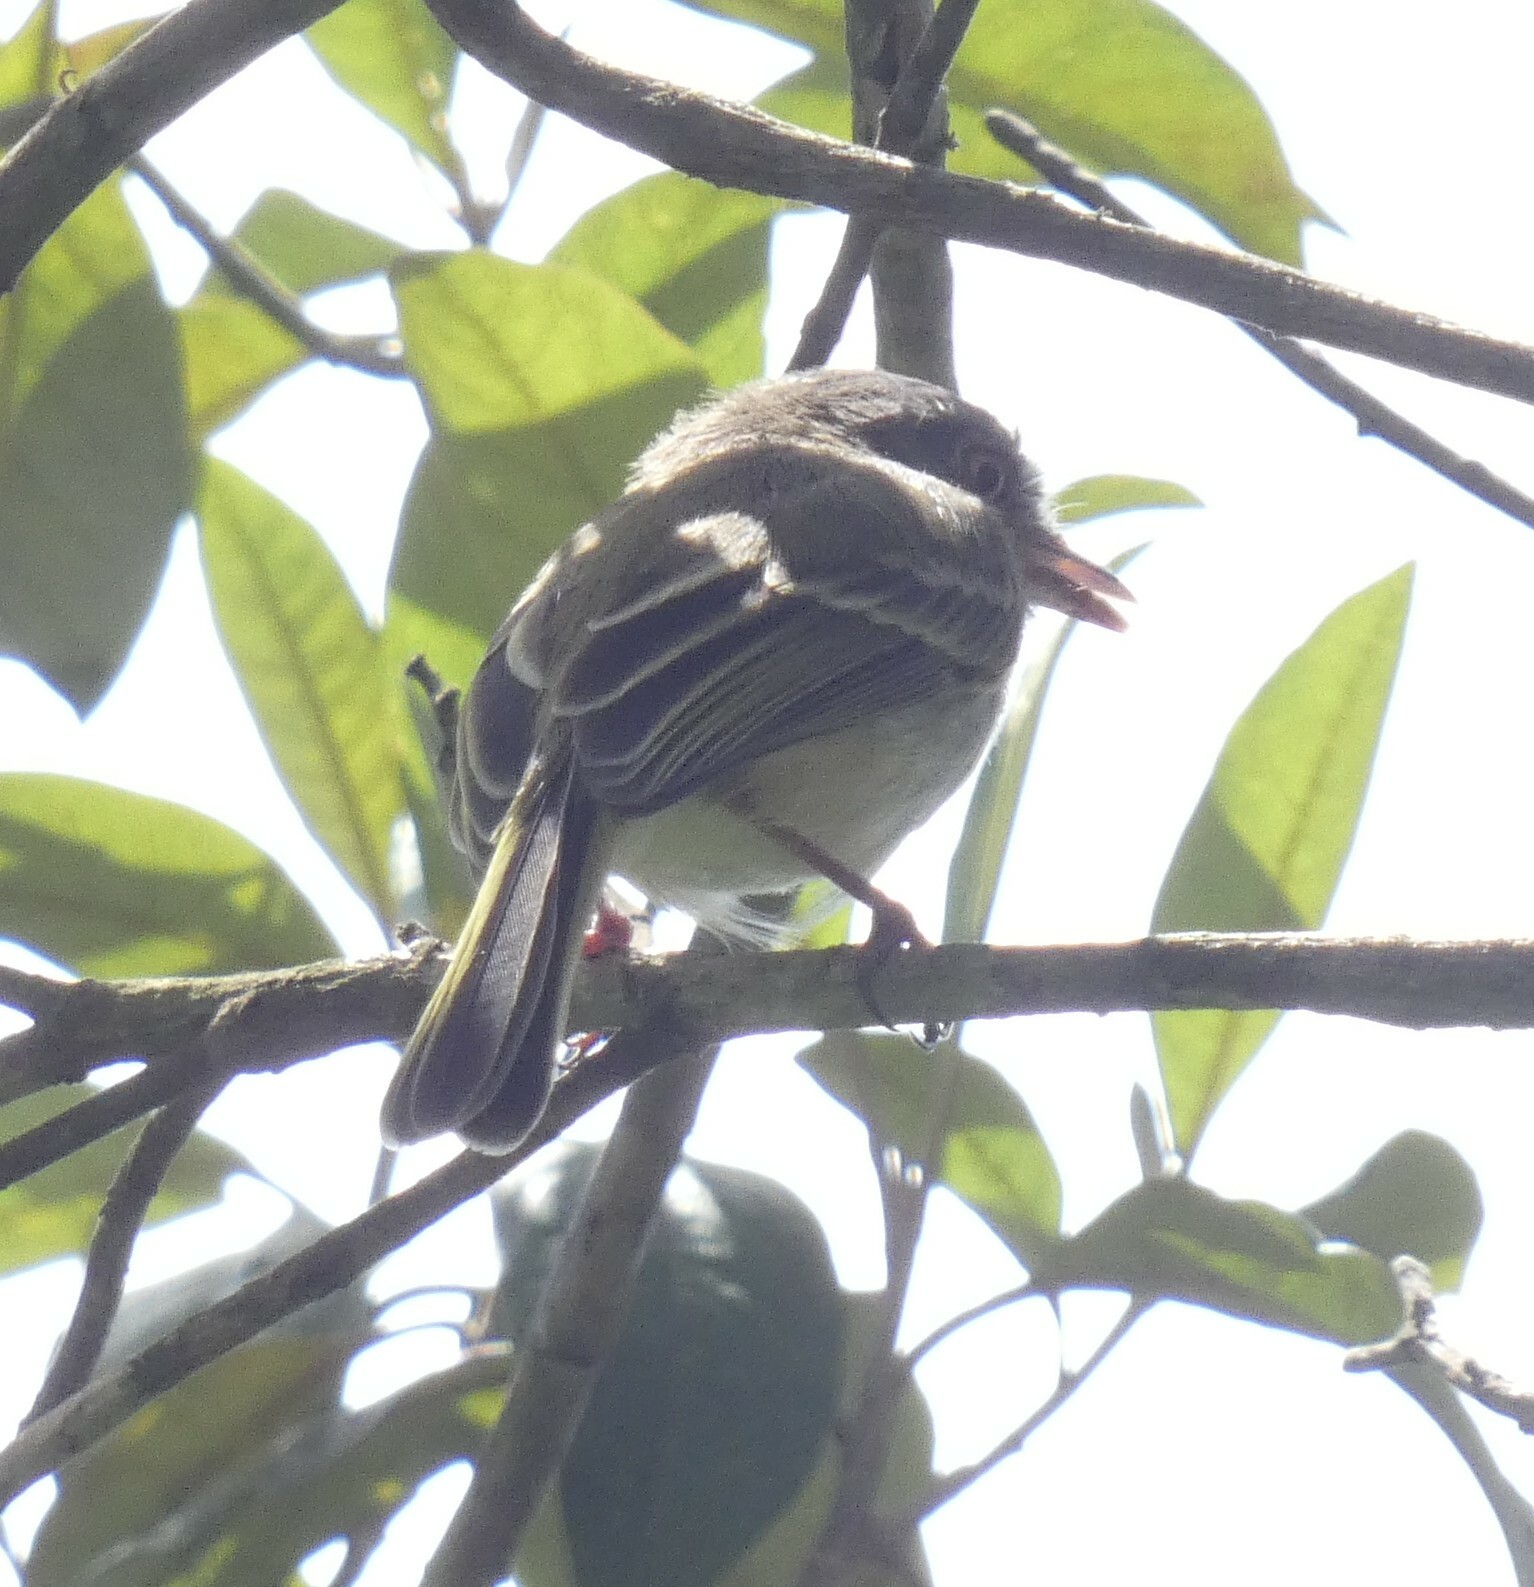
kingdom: Animalia
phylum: Chordata
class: Aves
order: Passeriformes
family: Tyrannidae
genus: Hemitriccus
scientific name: Hemitriccus margaritaceiventer
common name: Pearly-vented tody-tyrant
